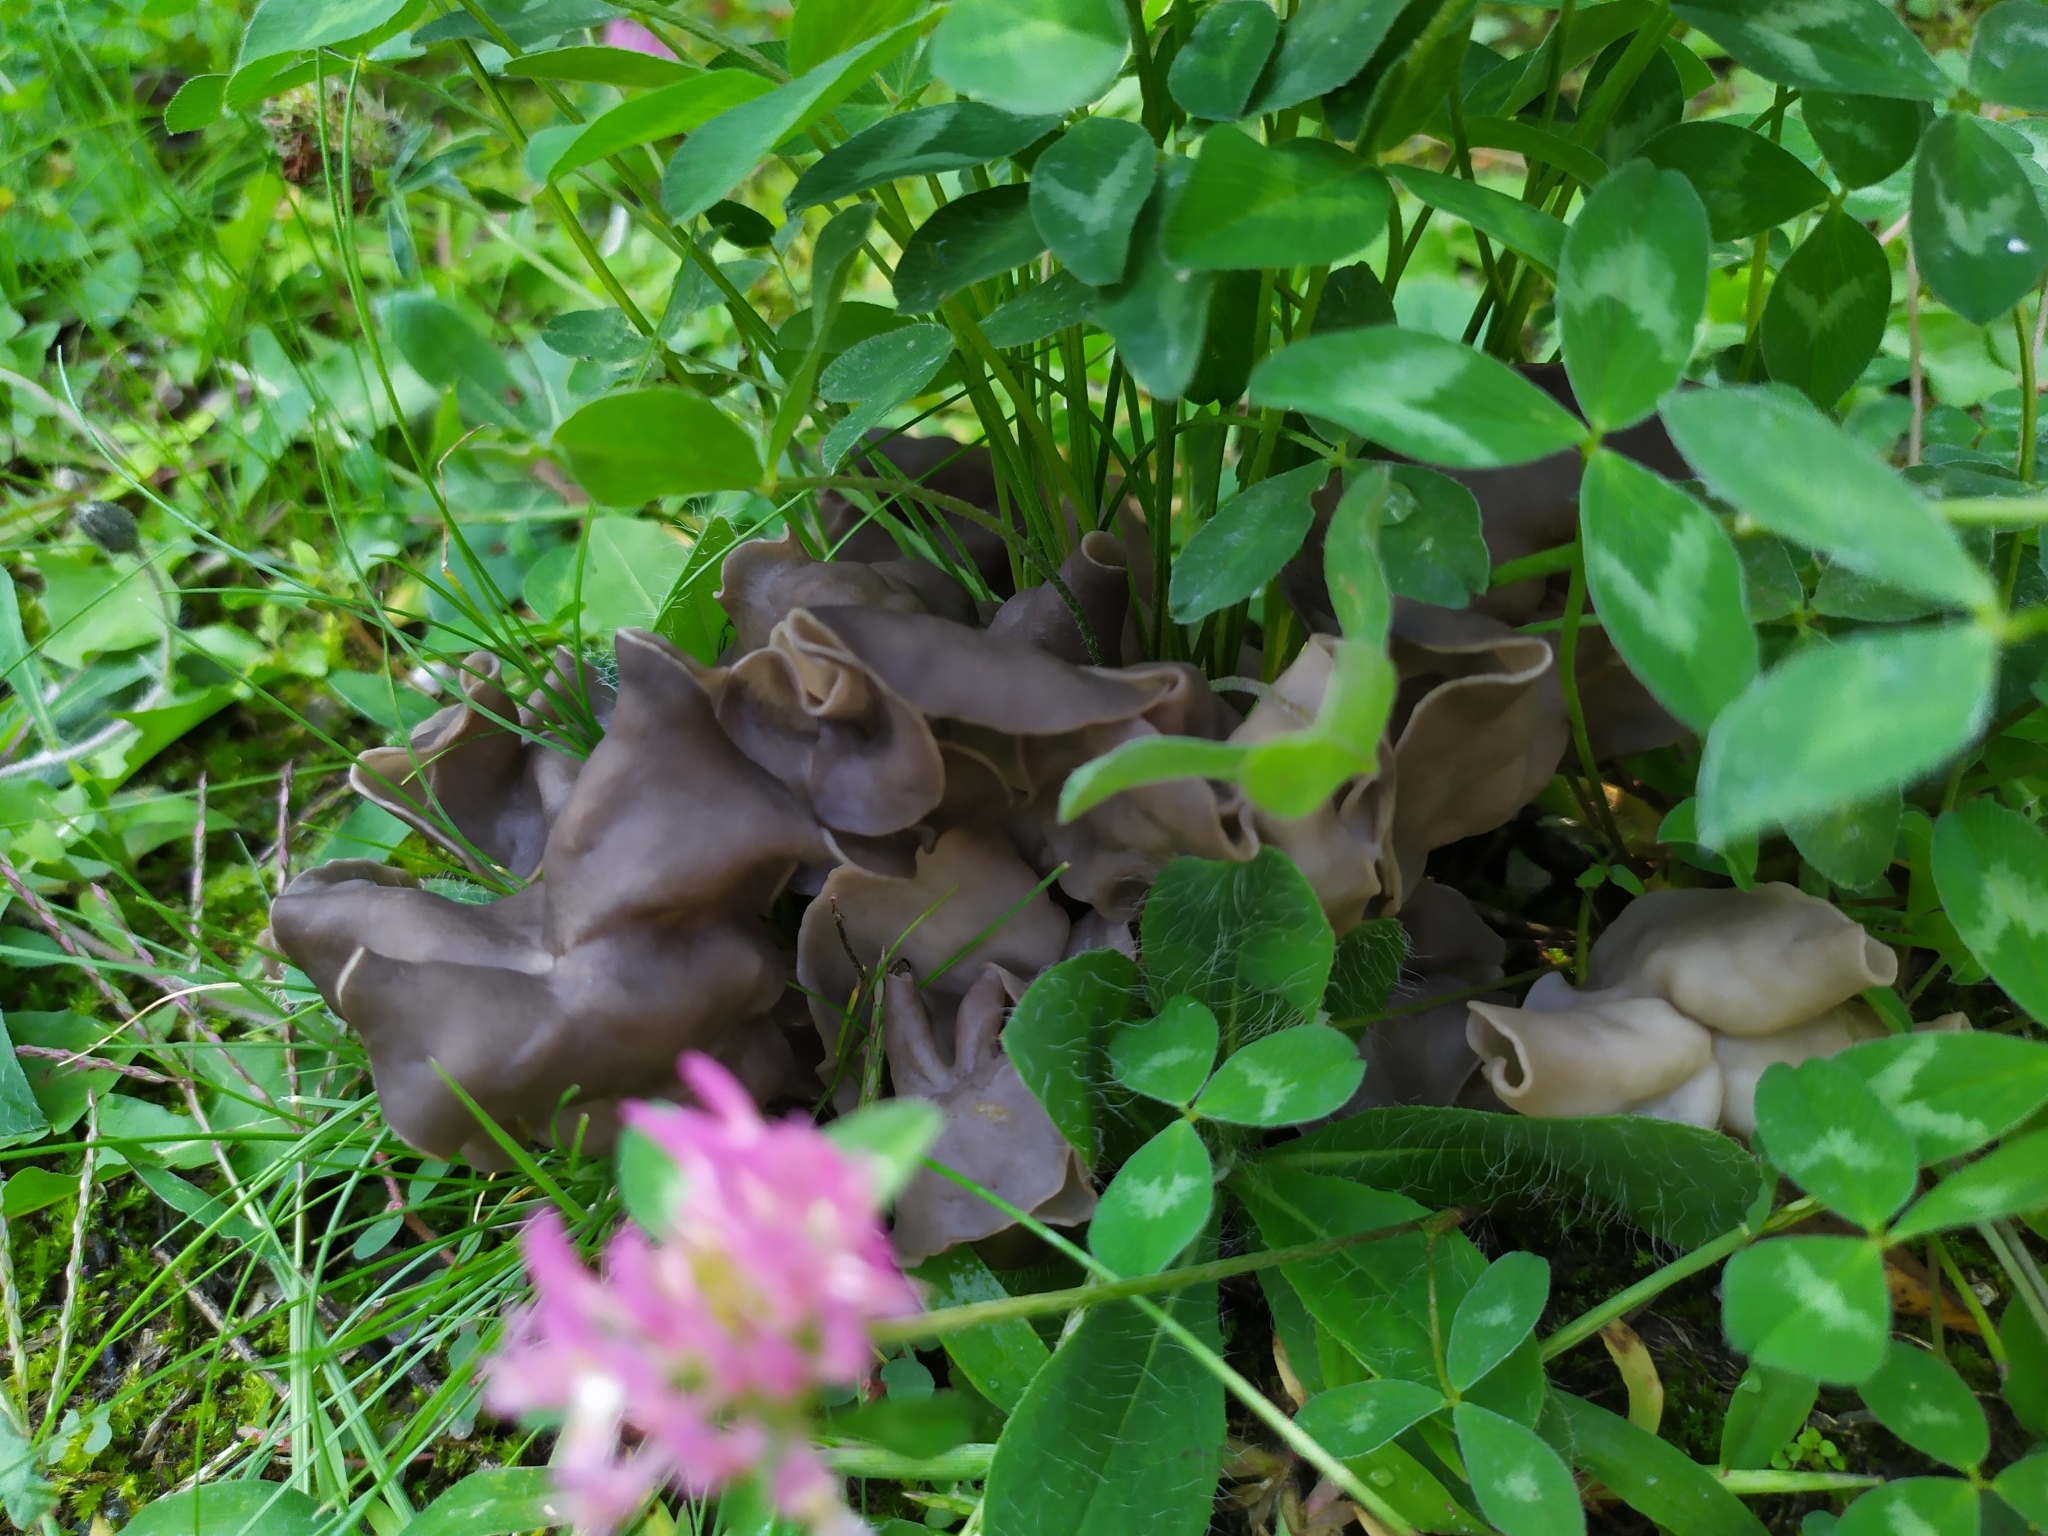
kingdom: Fungi
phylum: Ascomycota
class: Pezizomycetes
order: Pezizales
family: Helvellaceae
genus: Helvella
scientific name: Helvella lacunosa
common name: Elfin saddle
